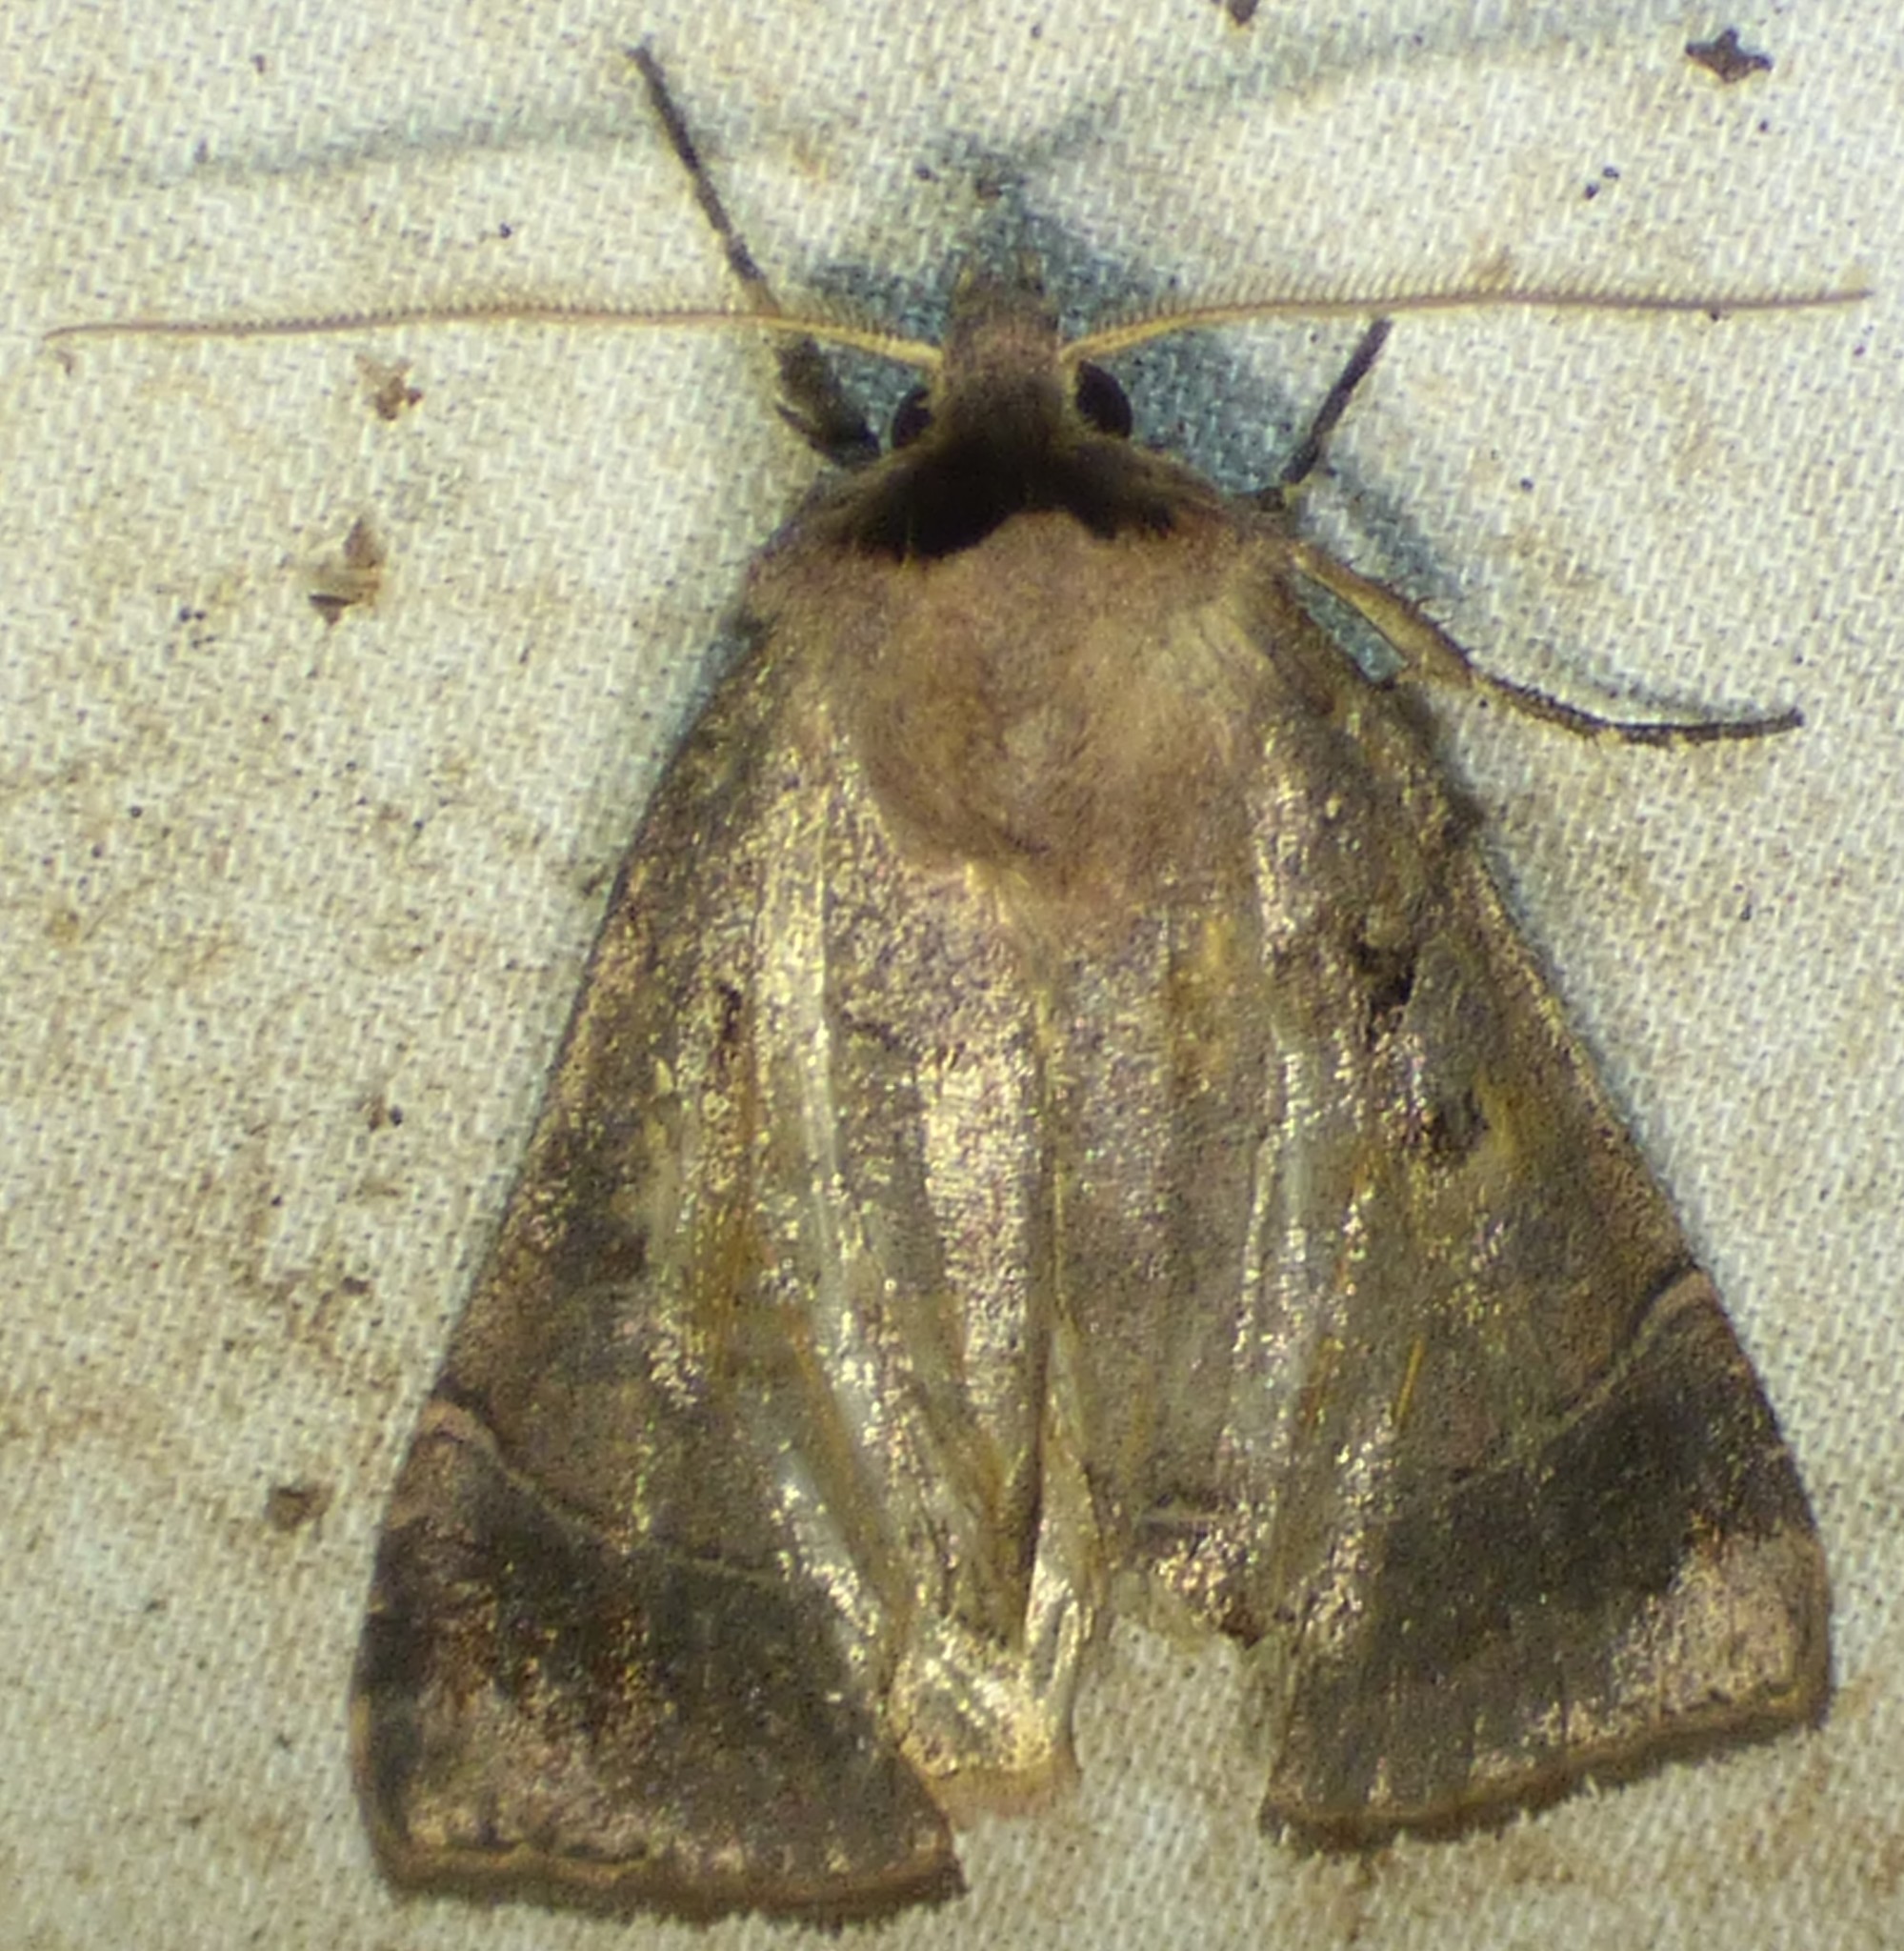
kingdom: Animalia
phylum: Arthropoda
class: Insecta
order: Lepidoptera
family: Noctuidae
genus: Agnorisma
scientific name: Agnorisma badinodis
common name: Pale-banded dart
